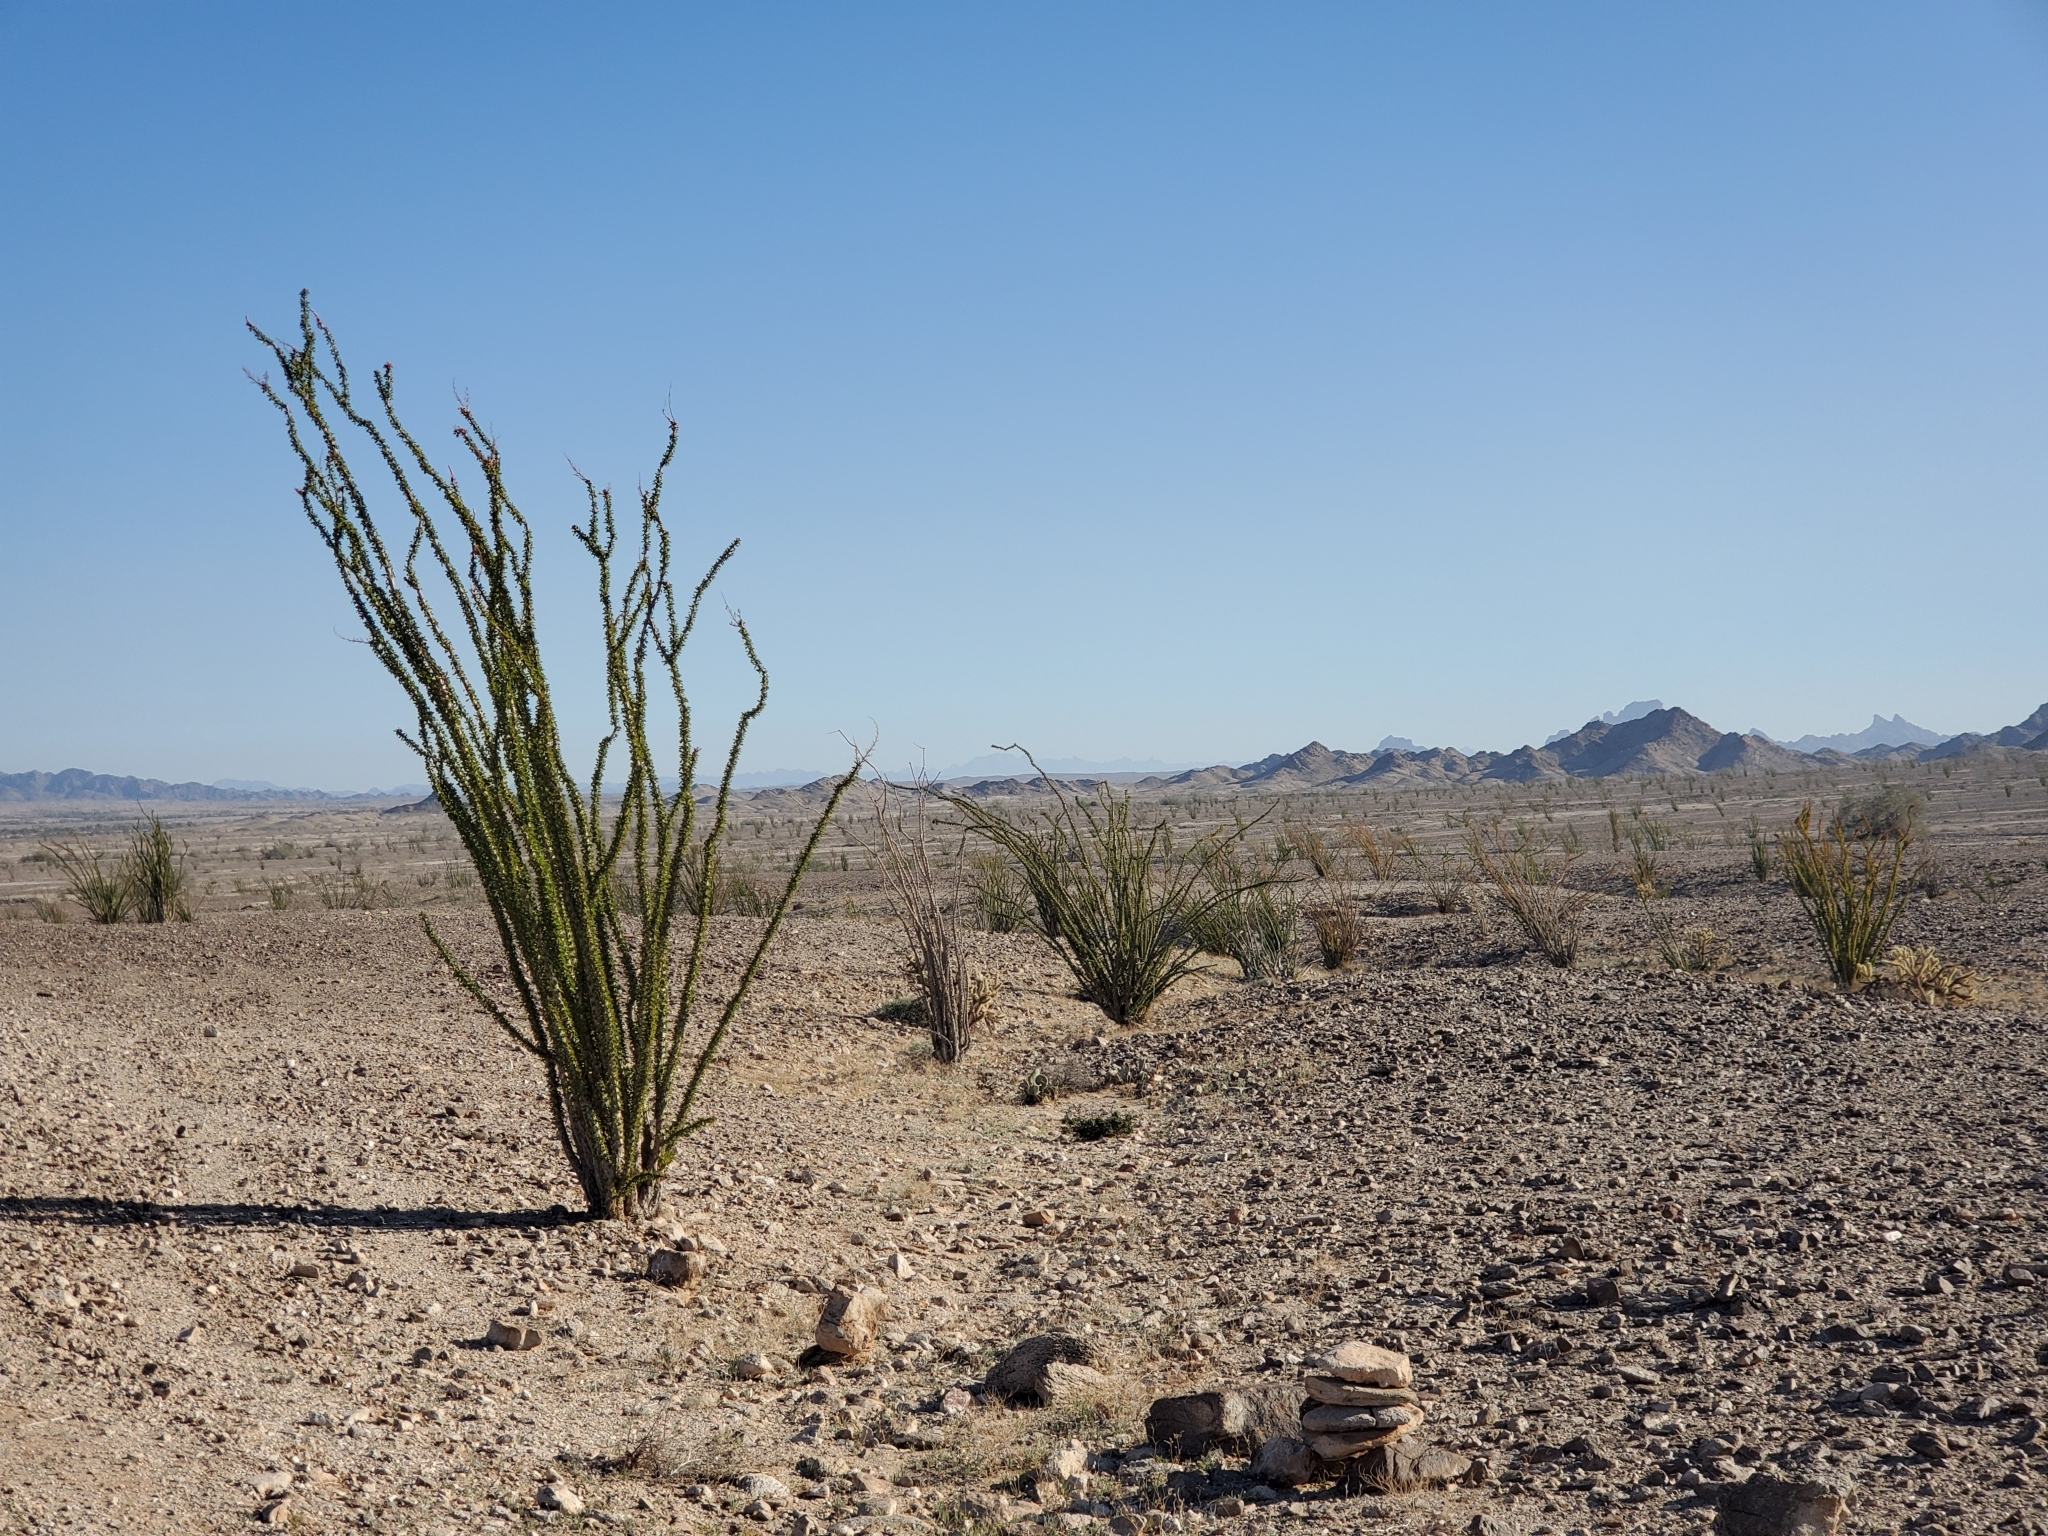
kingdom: Plantae
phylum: Tracheophyta
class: Magnoliopsida
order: Ericales
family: Fouquieriaceae
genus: Fouquieria
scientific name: Fouquieria splendens
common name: Vine-cactus
